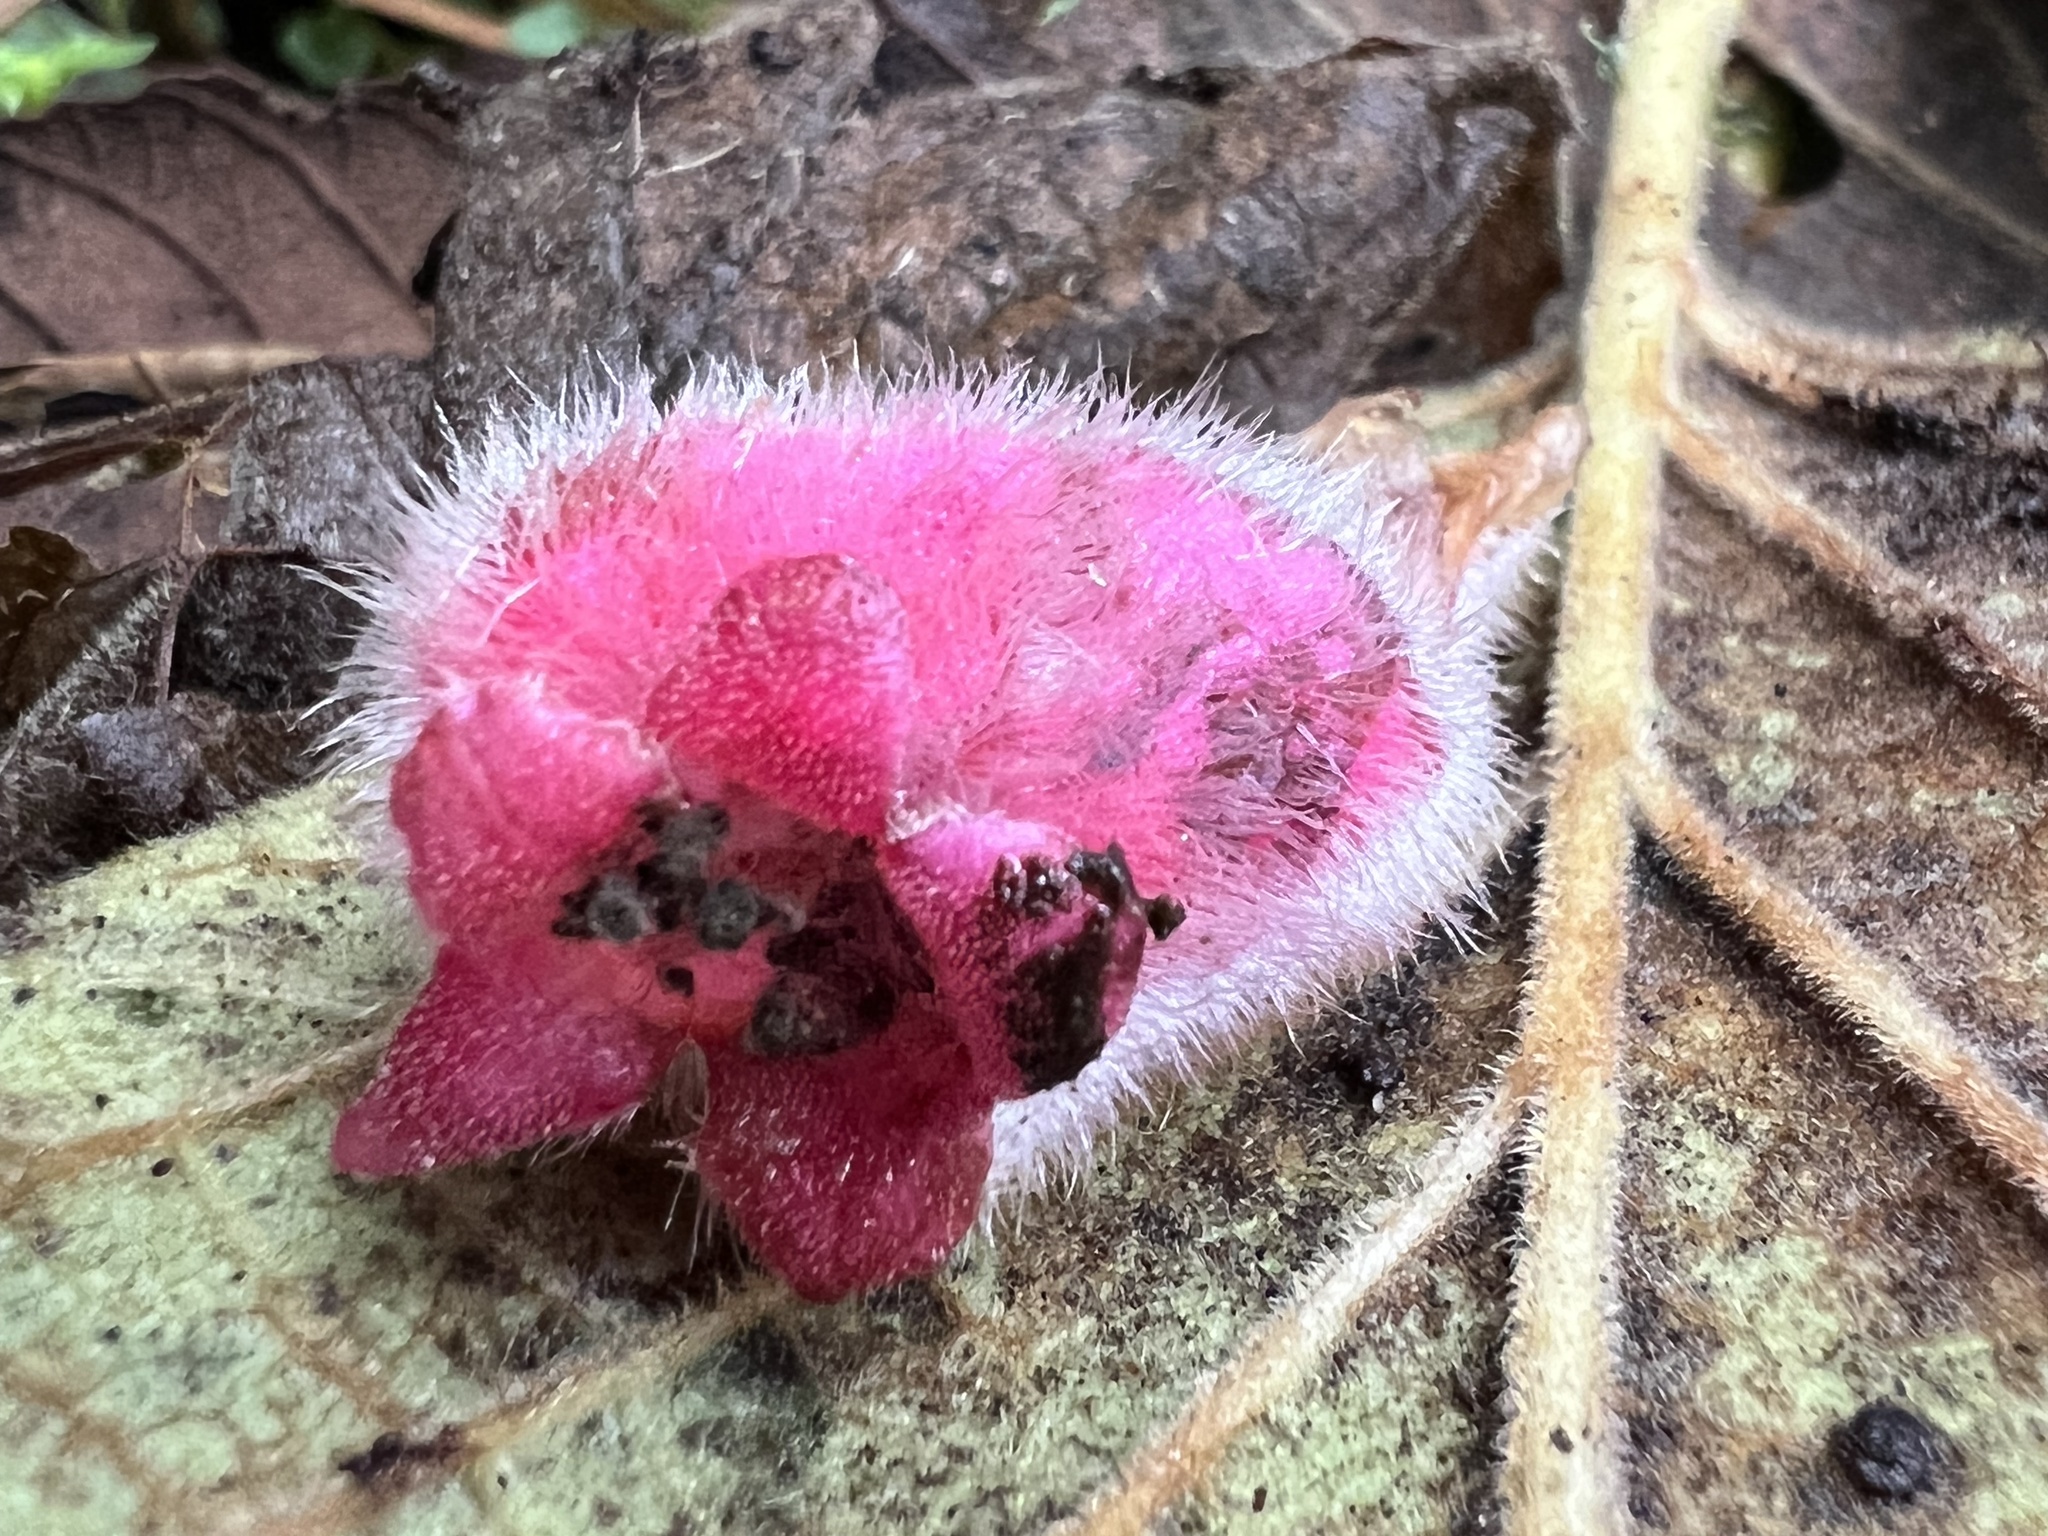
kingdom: Plantae
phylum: Tracheophyta
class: Magnoliopsida
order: Lamiales
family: Gesneriaceae
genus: Alloplectus
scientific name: Alloplectus inflatus
